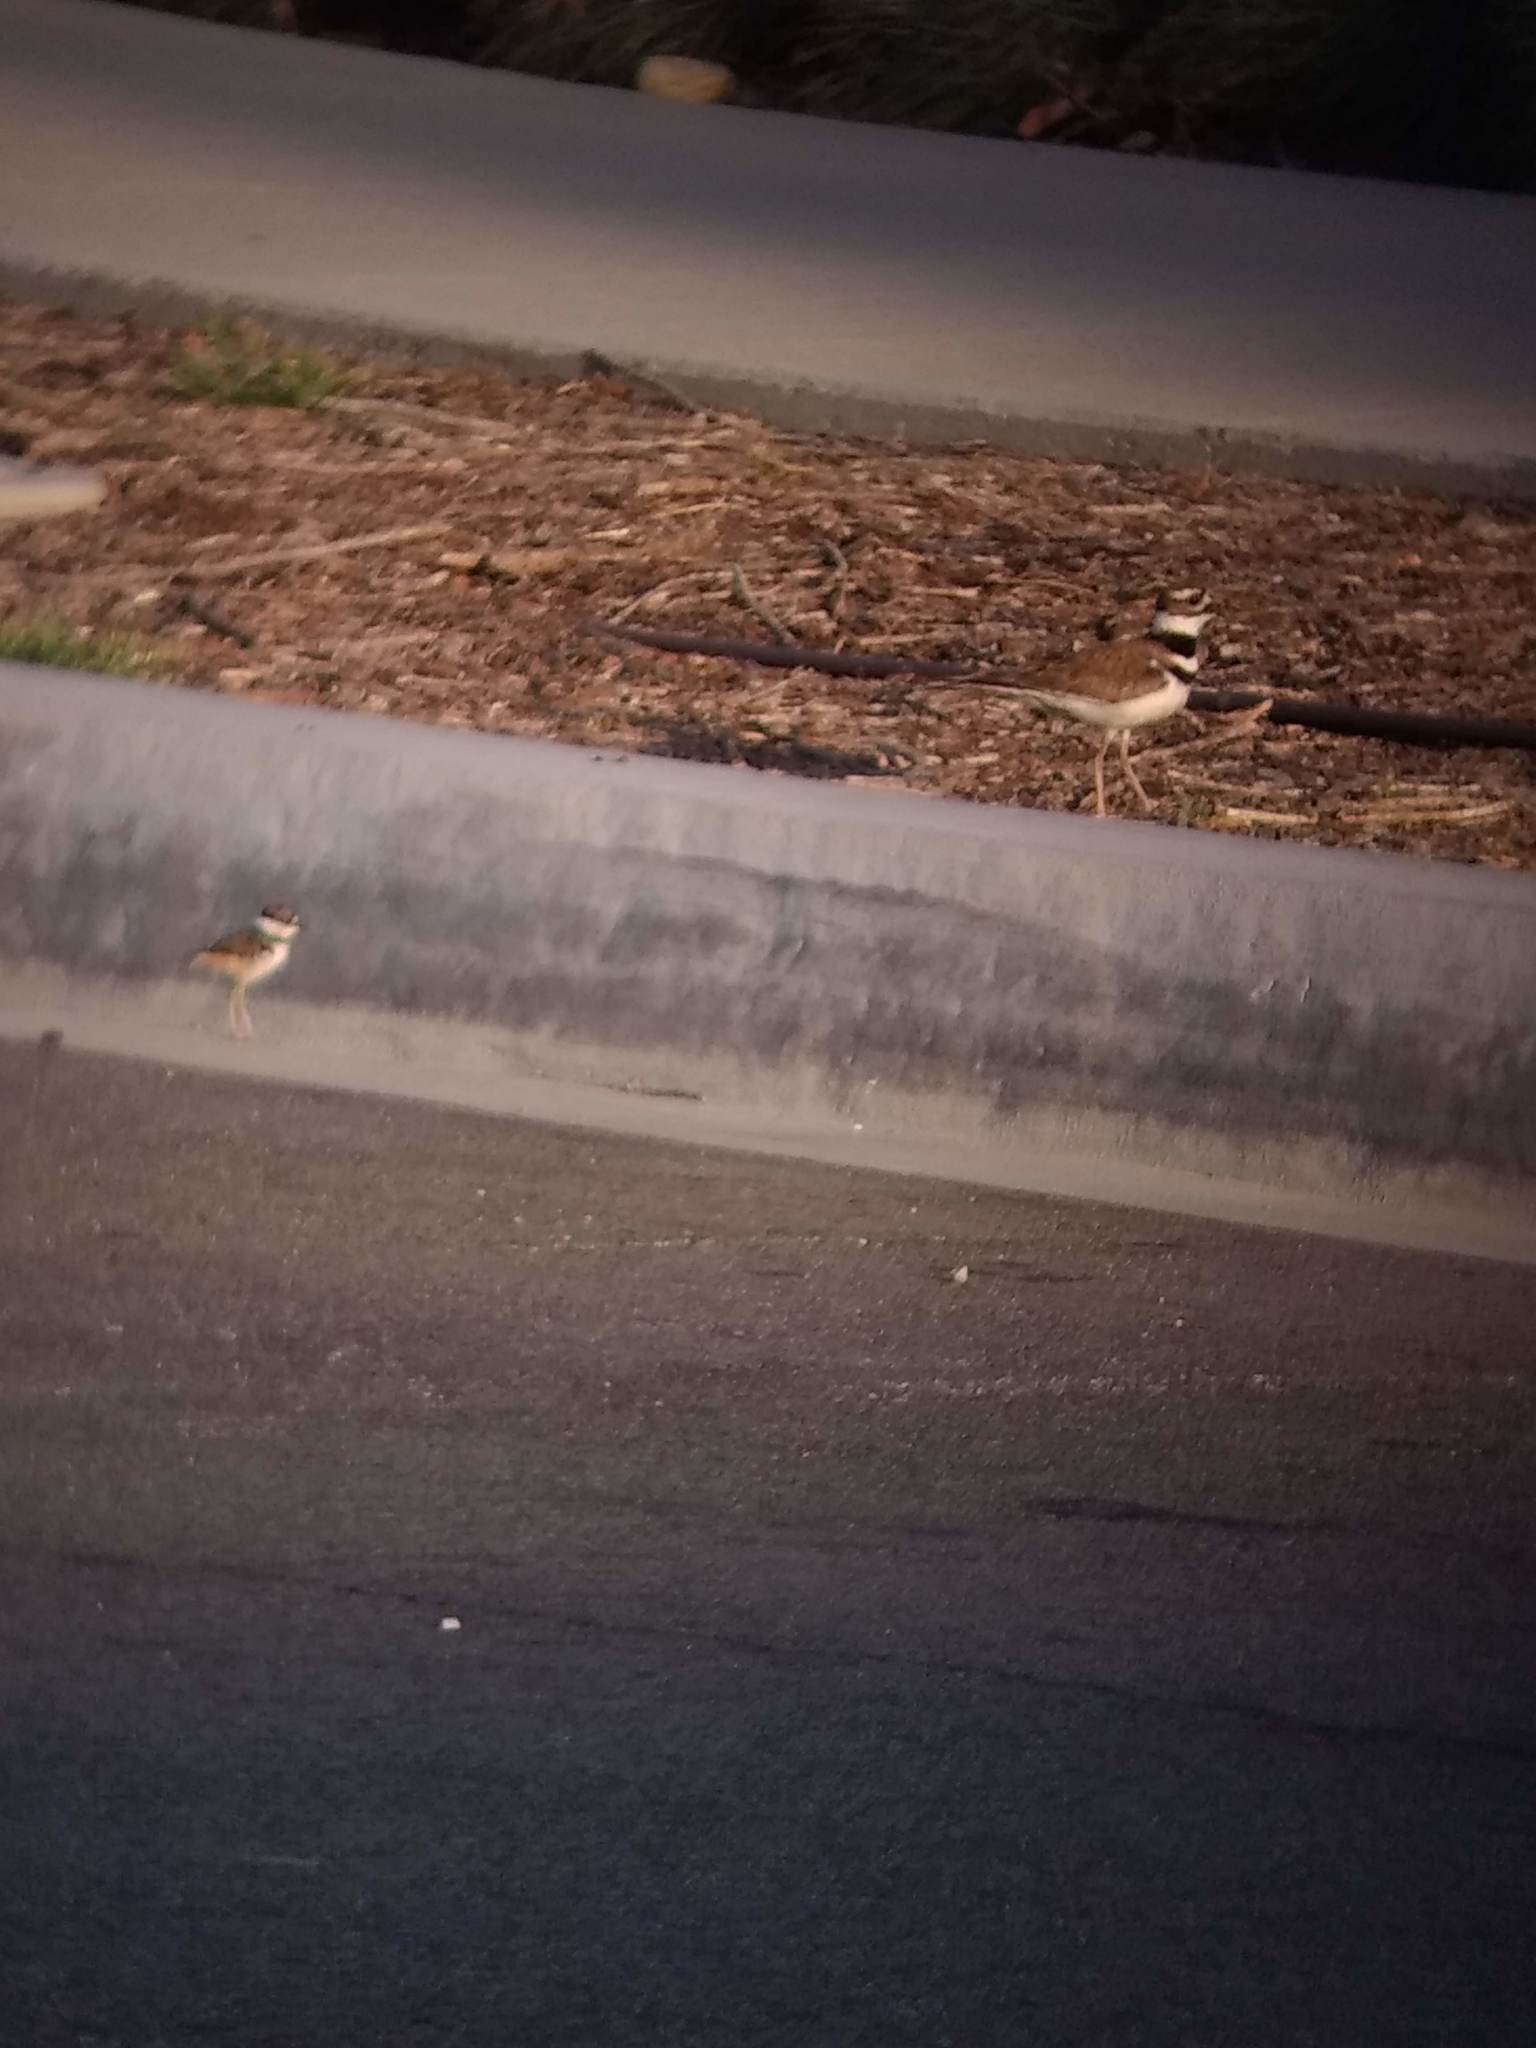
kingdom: Animalia
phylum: Chordata
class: Aves
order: Charadriiformes
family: Charadriidae
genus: Charadrius
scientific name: Charadrius vociferus
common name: Killdeer
